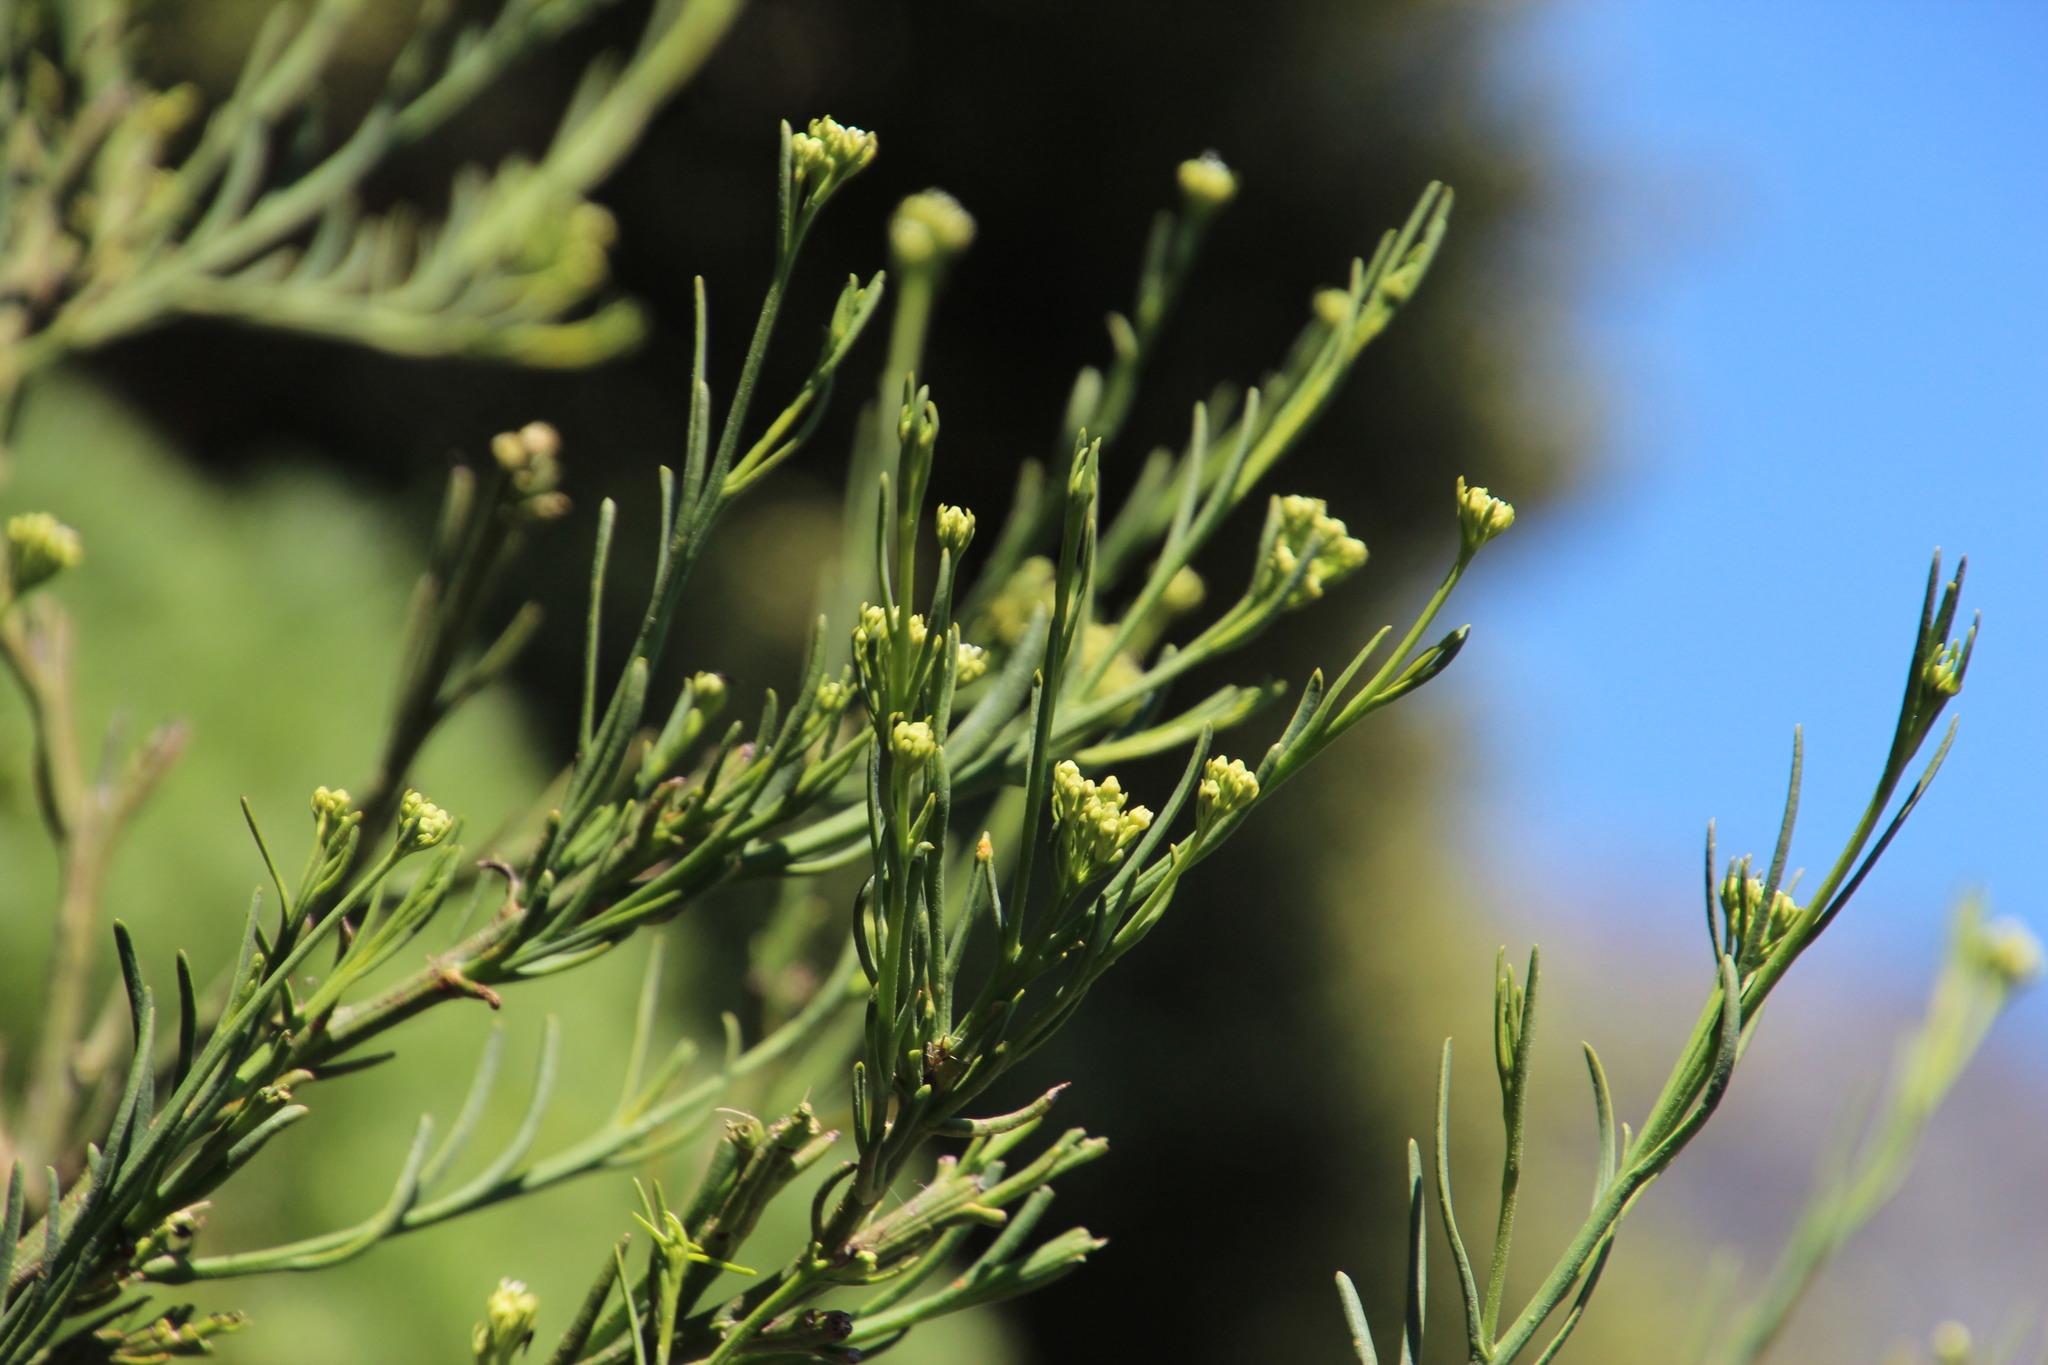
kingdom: Plantae
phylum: Tracheophyta
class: Magnoliopsida
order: Santalales
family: Thesiaceae
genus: Thesium
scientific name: Thesium strictum
